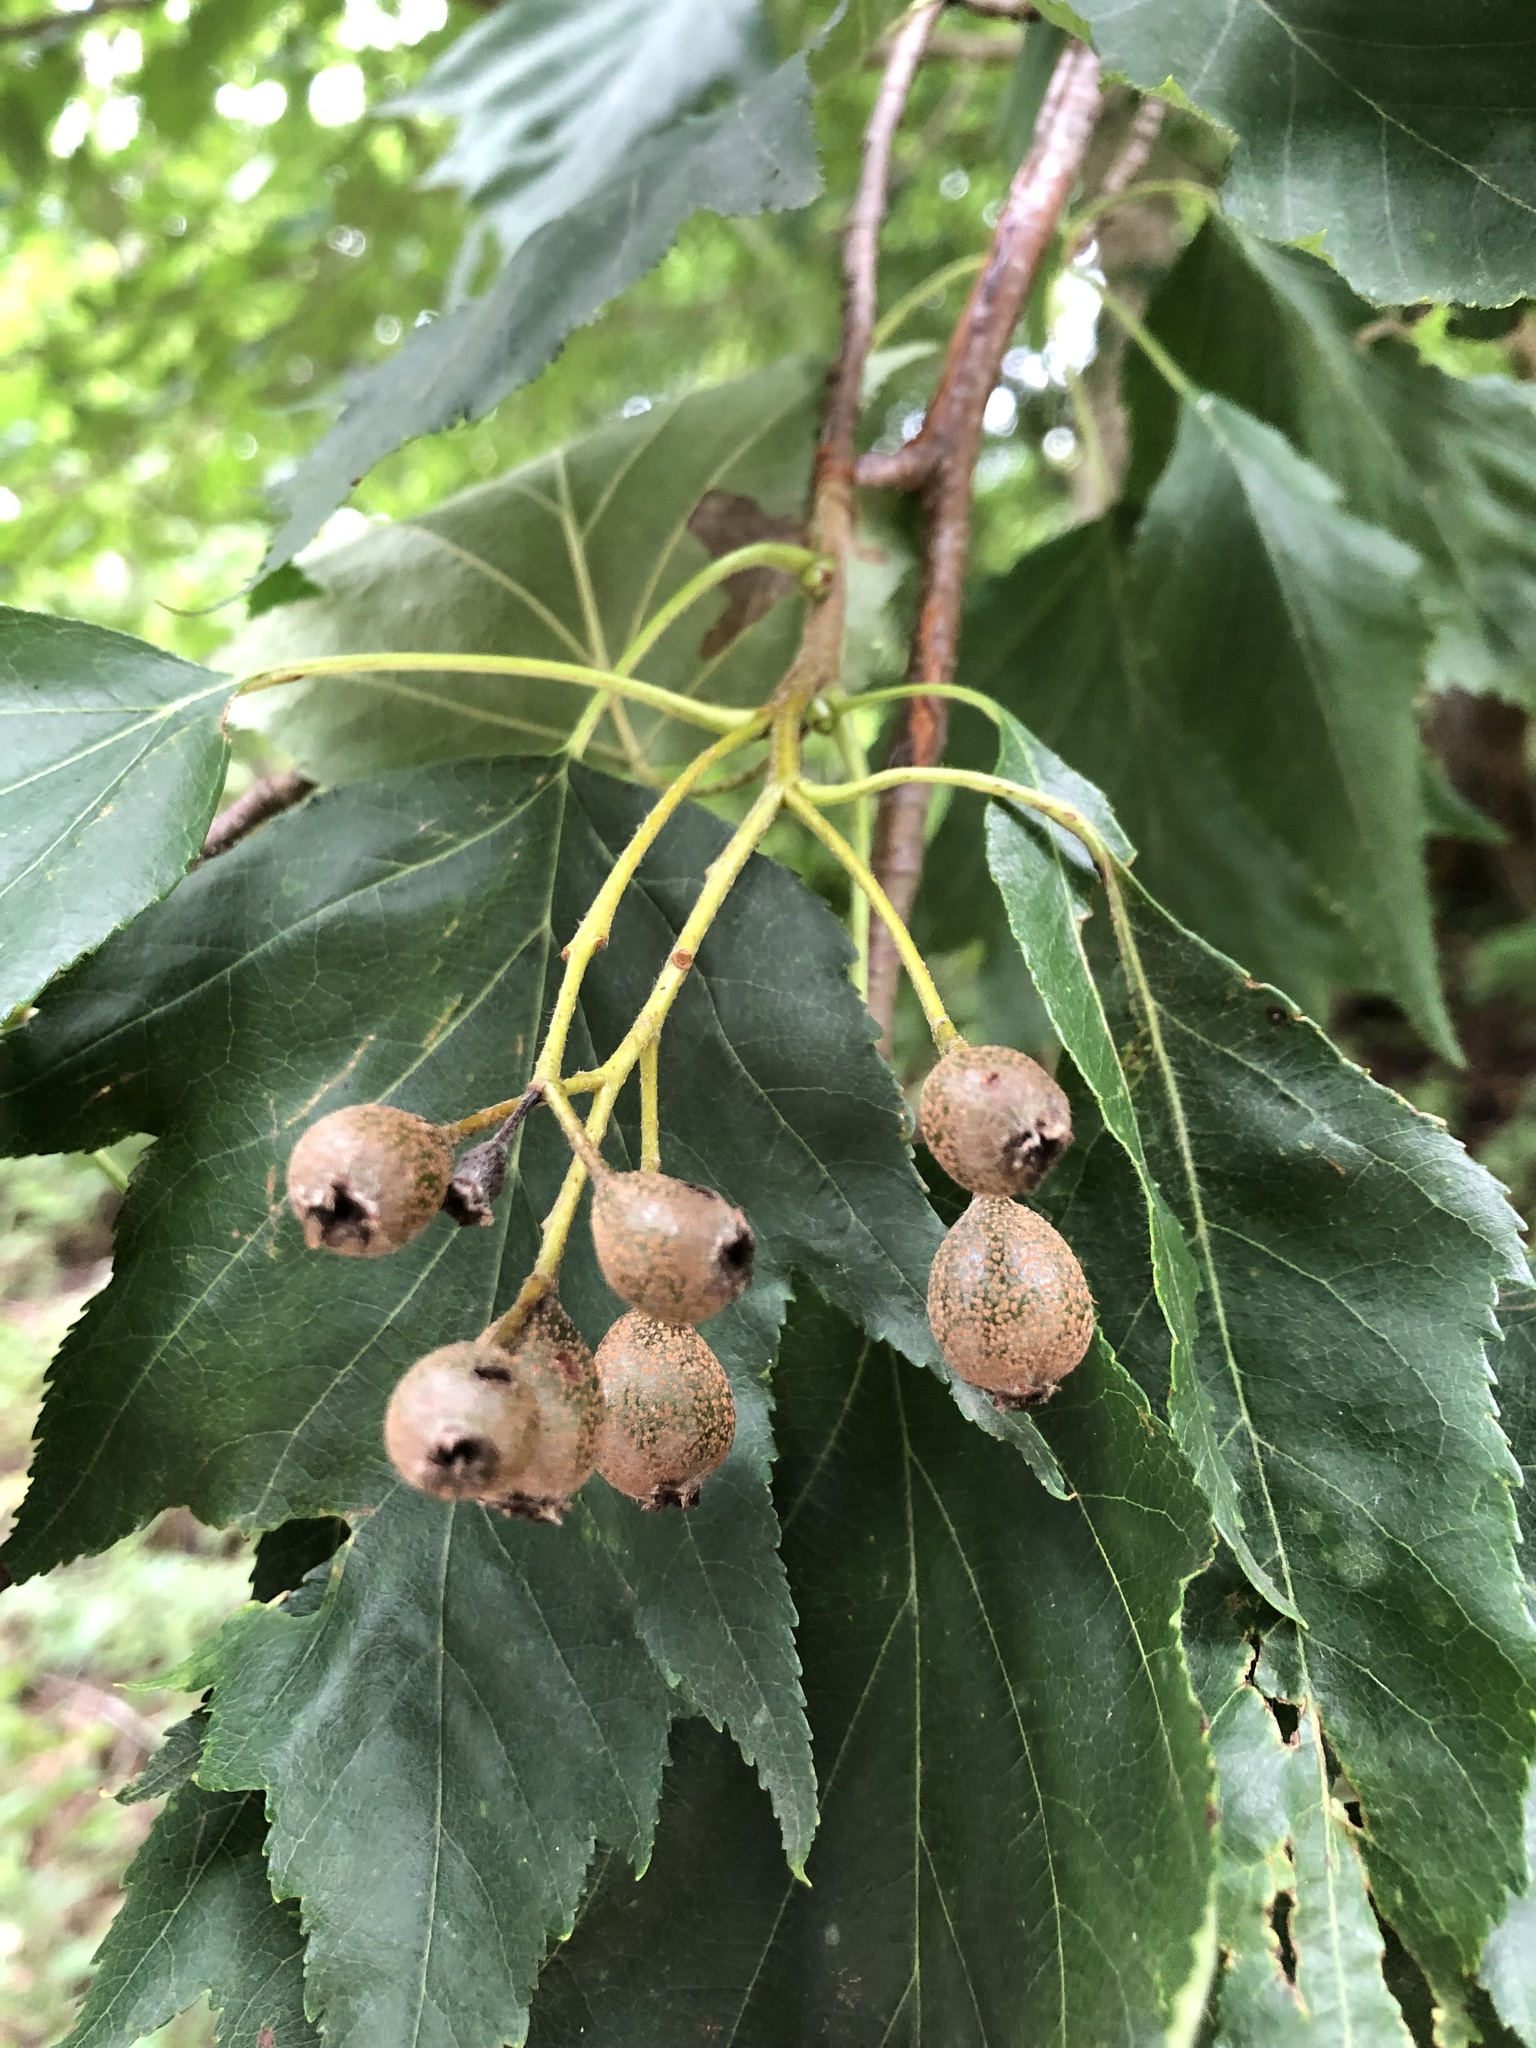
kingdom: Plantae
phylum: Tracheophyta
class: Magnoliopsida
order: Rosales
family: Rosaceae
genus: Torminalis
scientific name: Torminalis glaberrima
